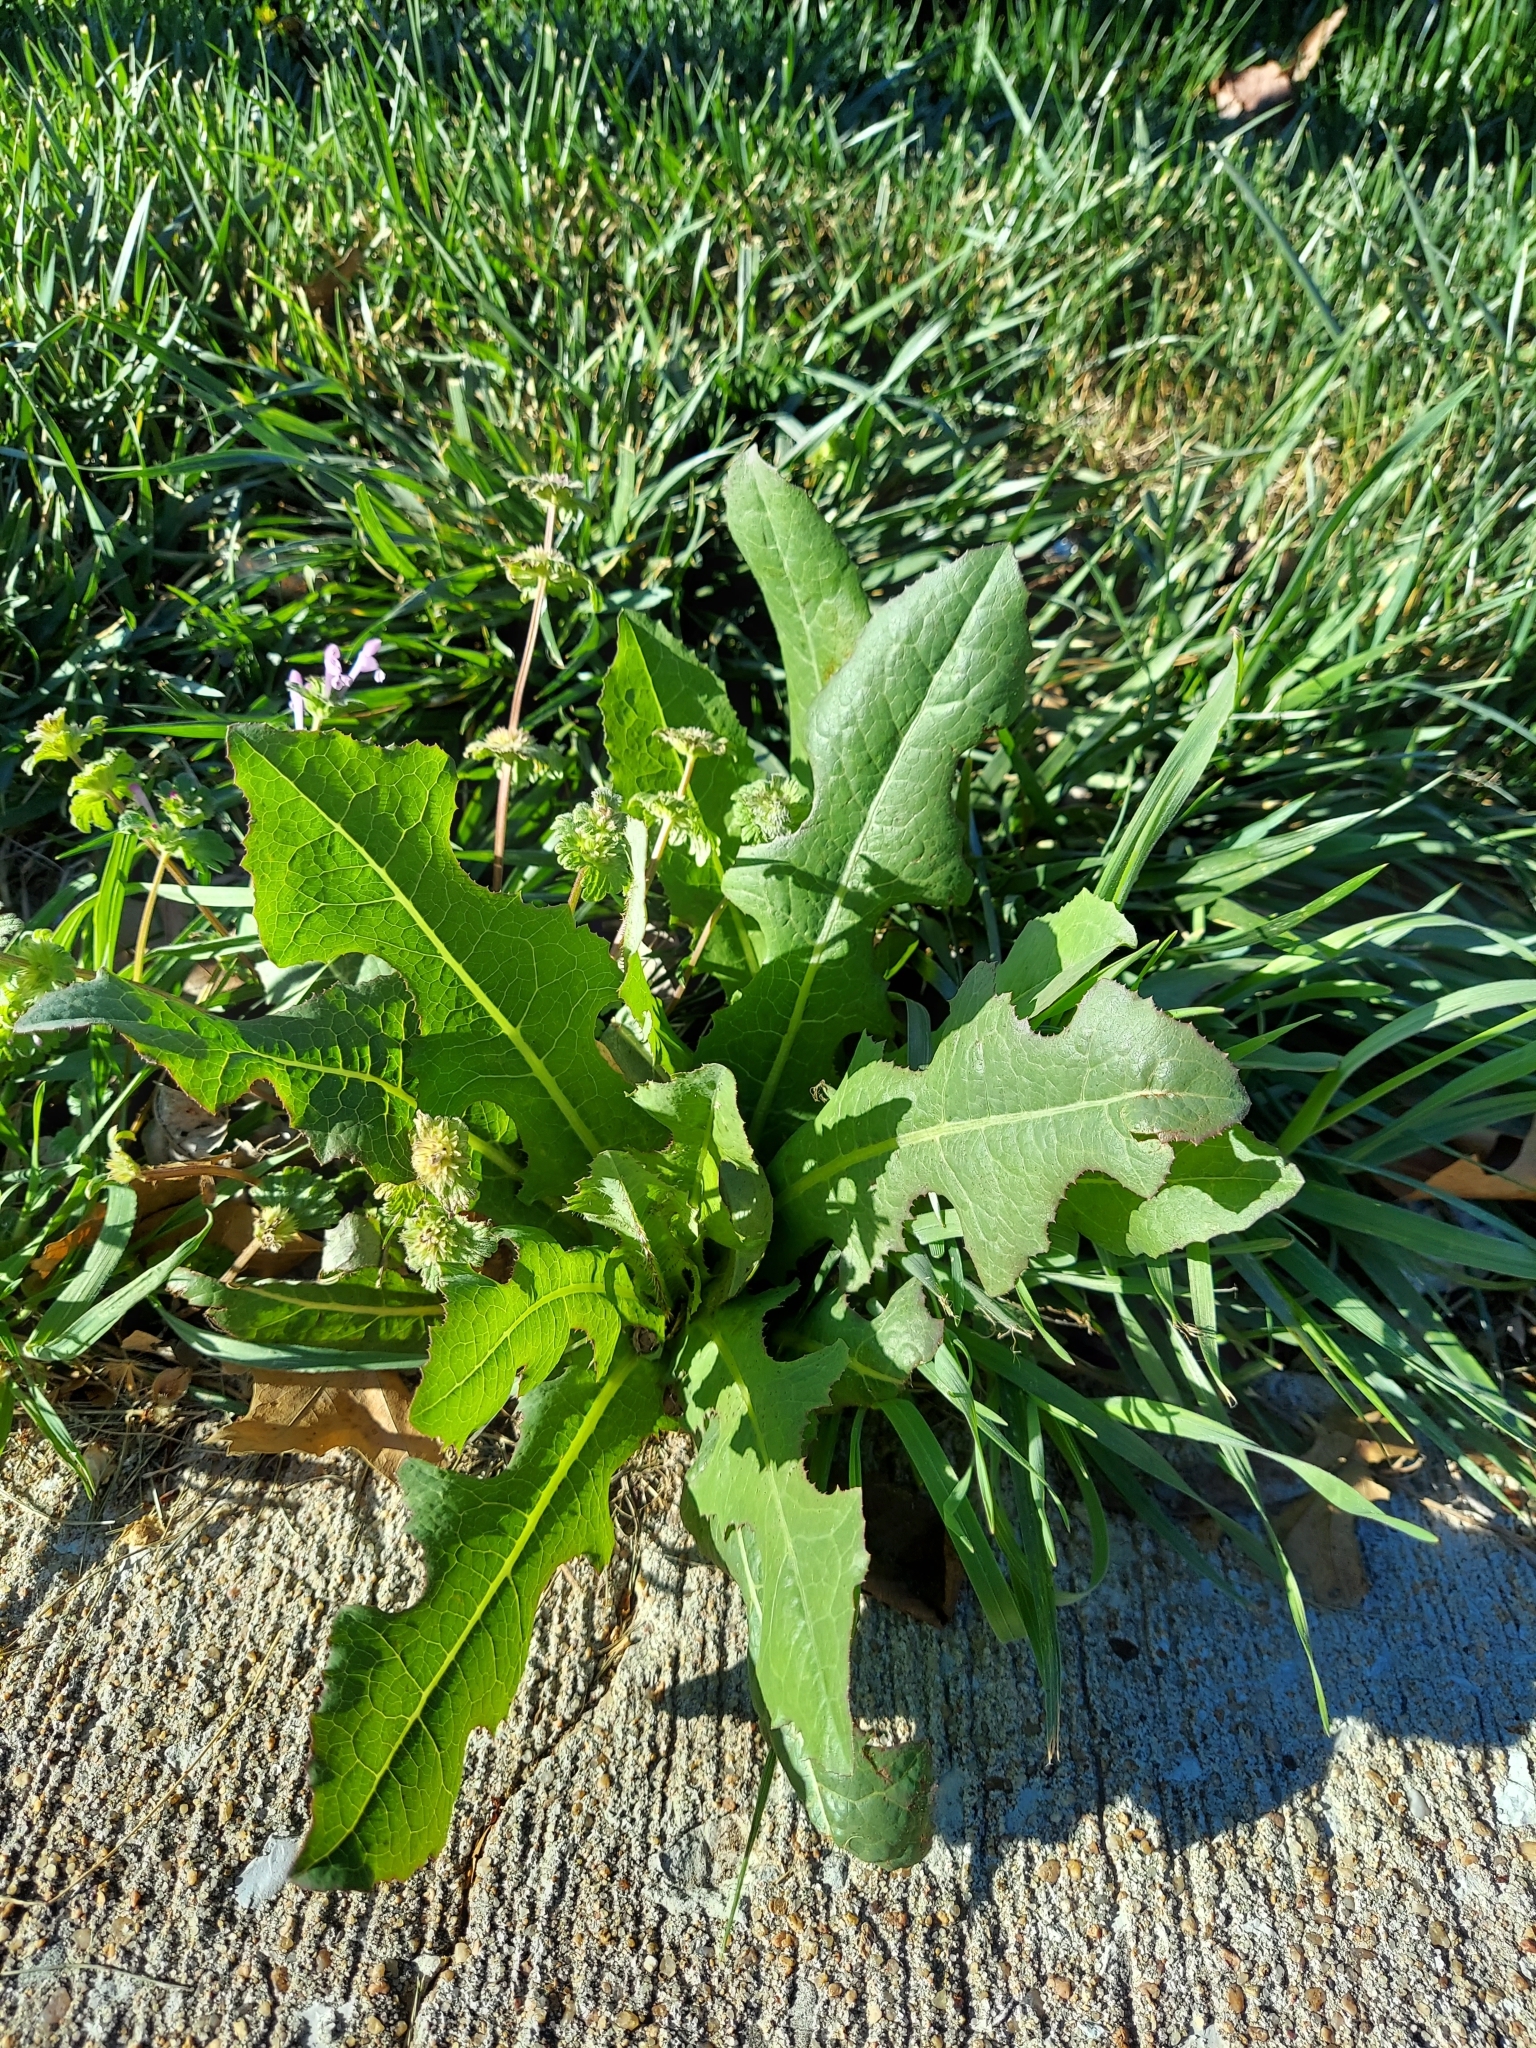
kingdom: Plantae
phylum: Tracheophyta
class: Magnoliopsida
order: Asterales
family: Asteraceae
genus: Lactuca
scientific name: Lactuca serriola
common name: Prickly lettuce
